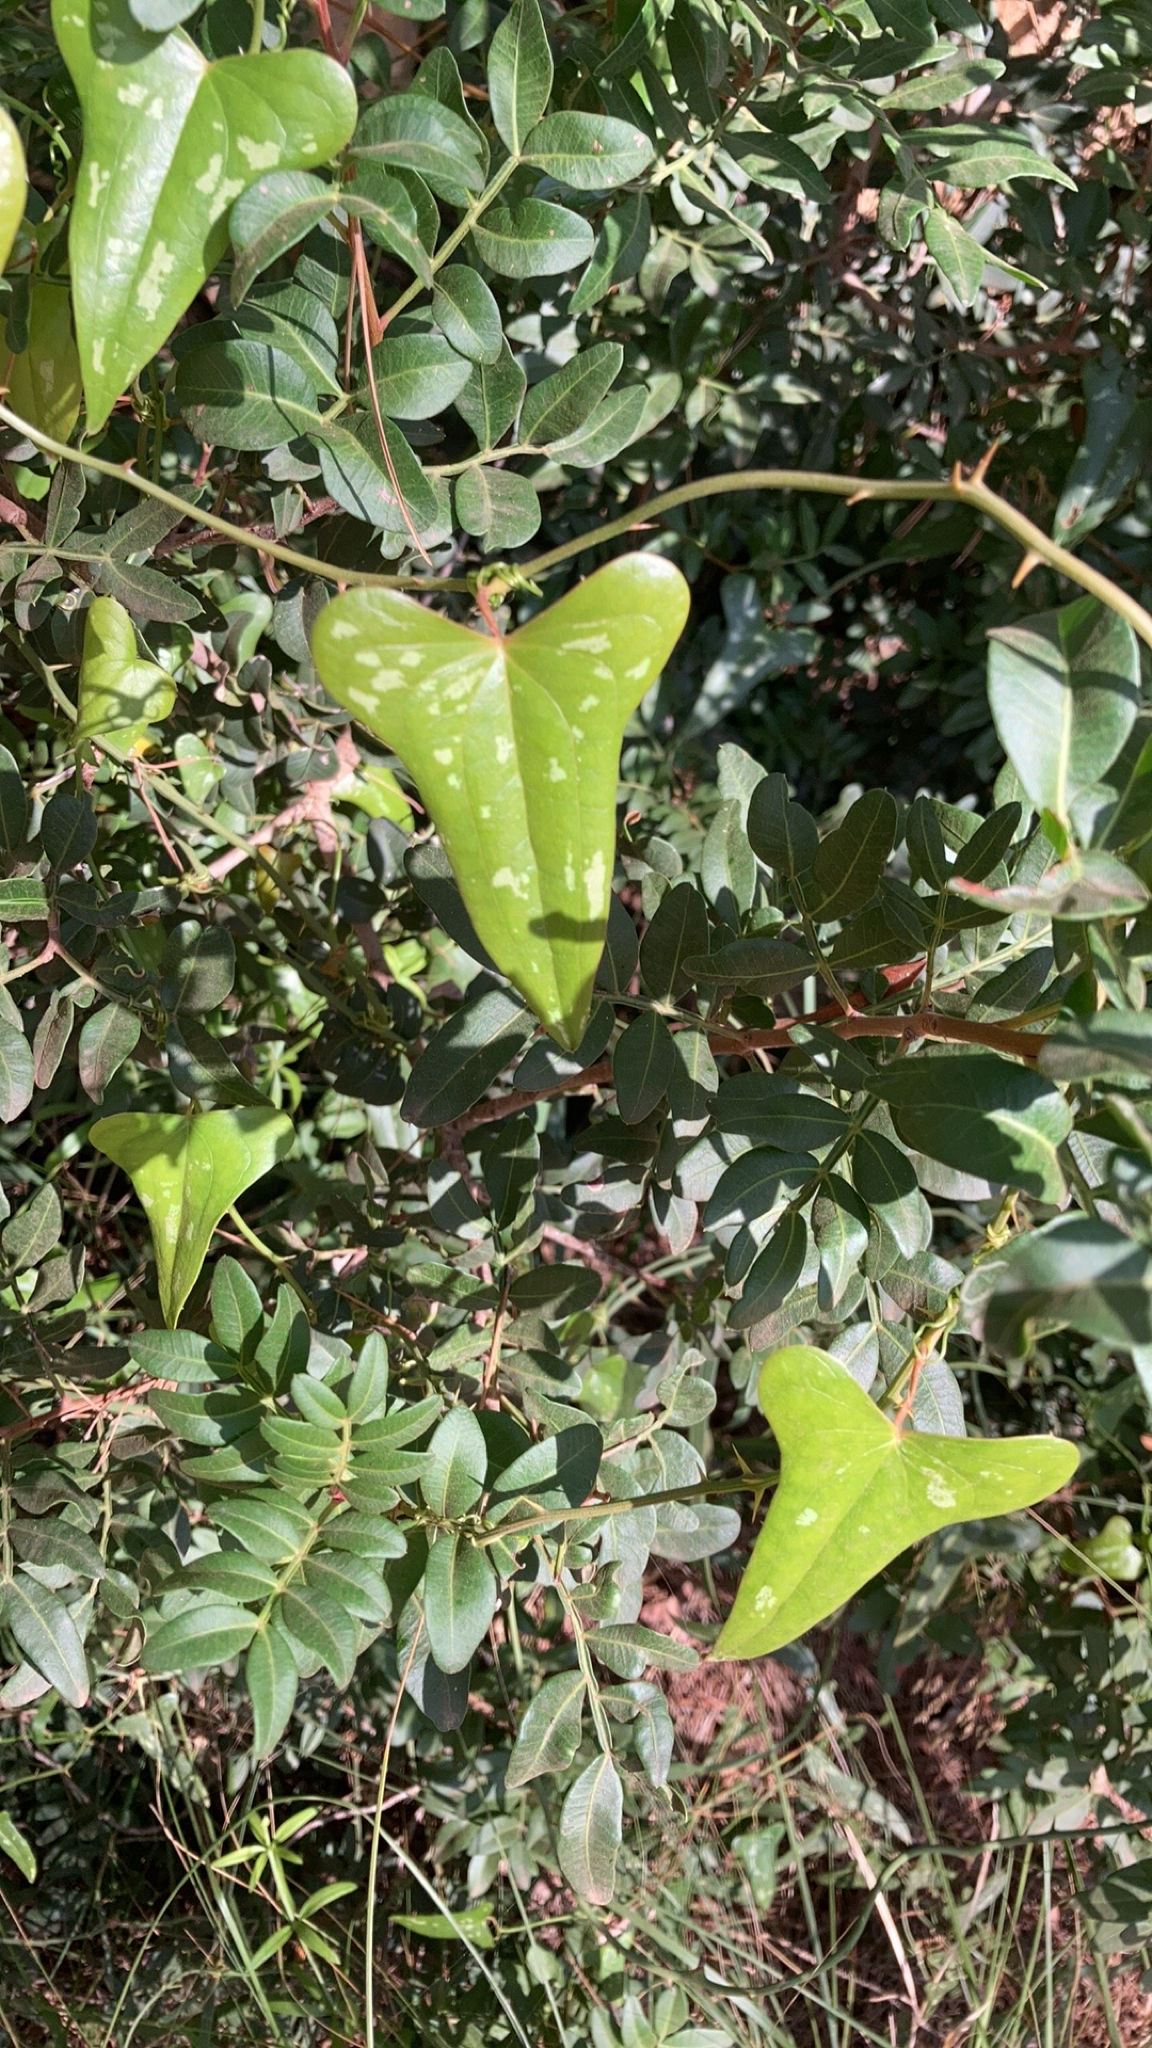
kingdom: Plantae
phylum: Tracheophyta
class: Liliopsida
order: Liliales
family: Smilacaceae
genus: Smilax
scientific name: Smilax aspera
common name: Common smilax
